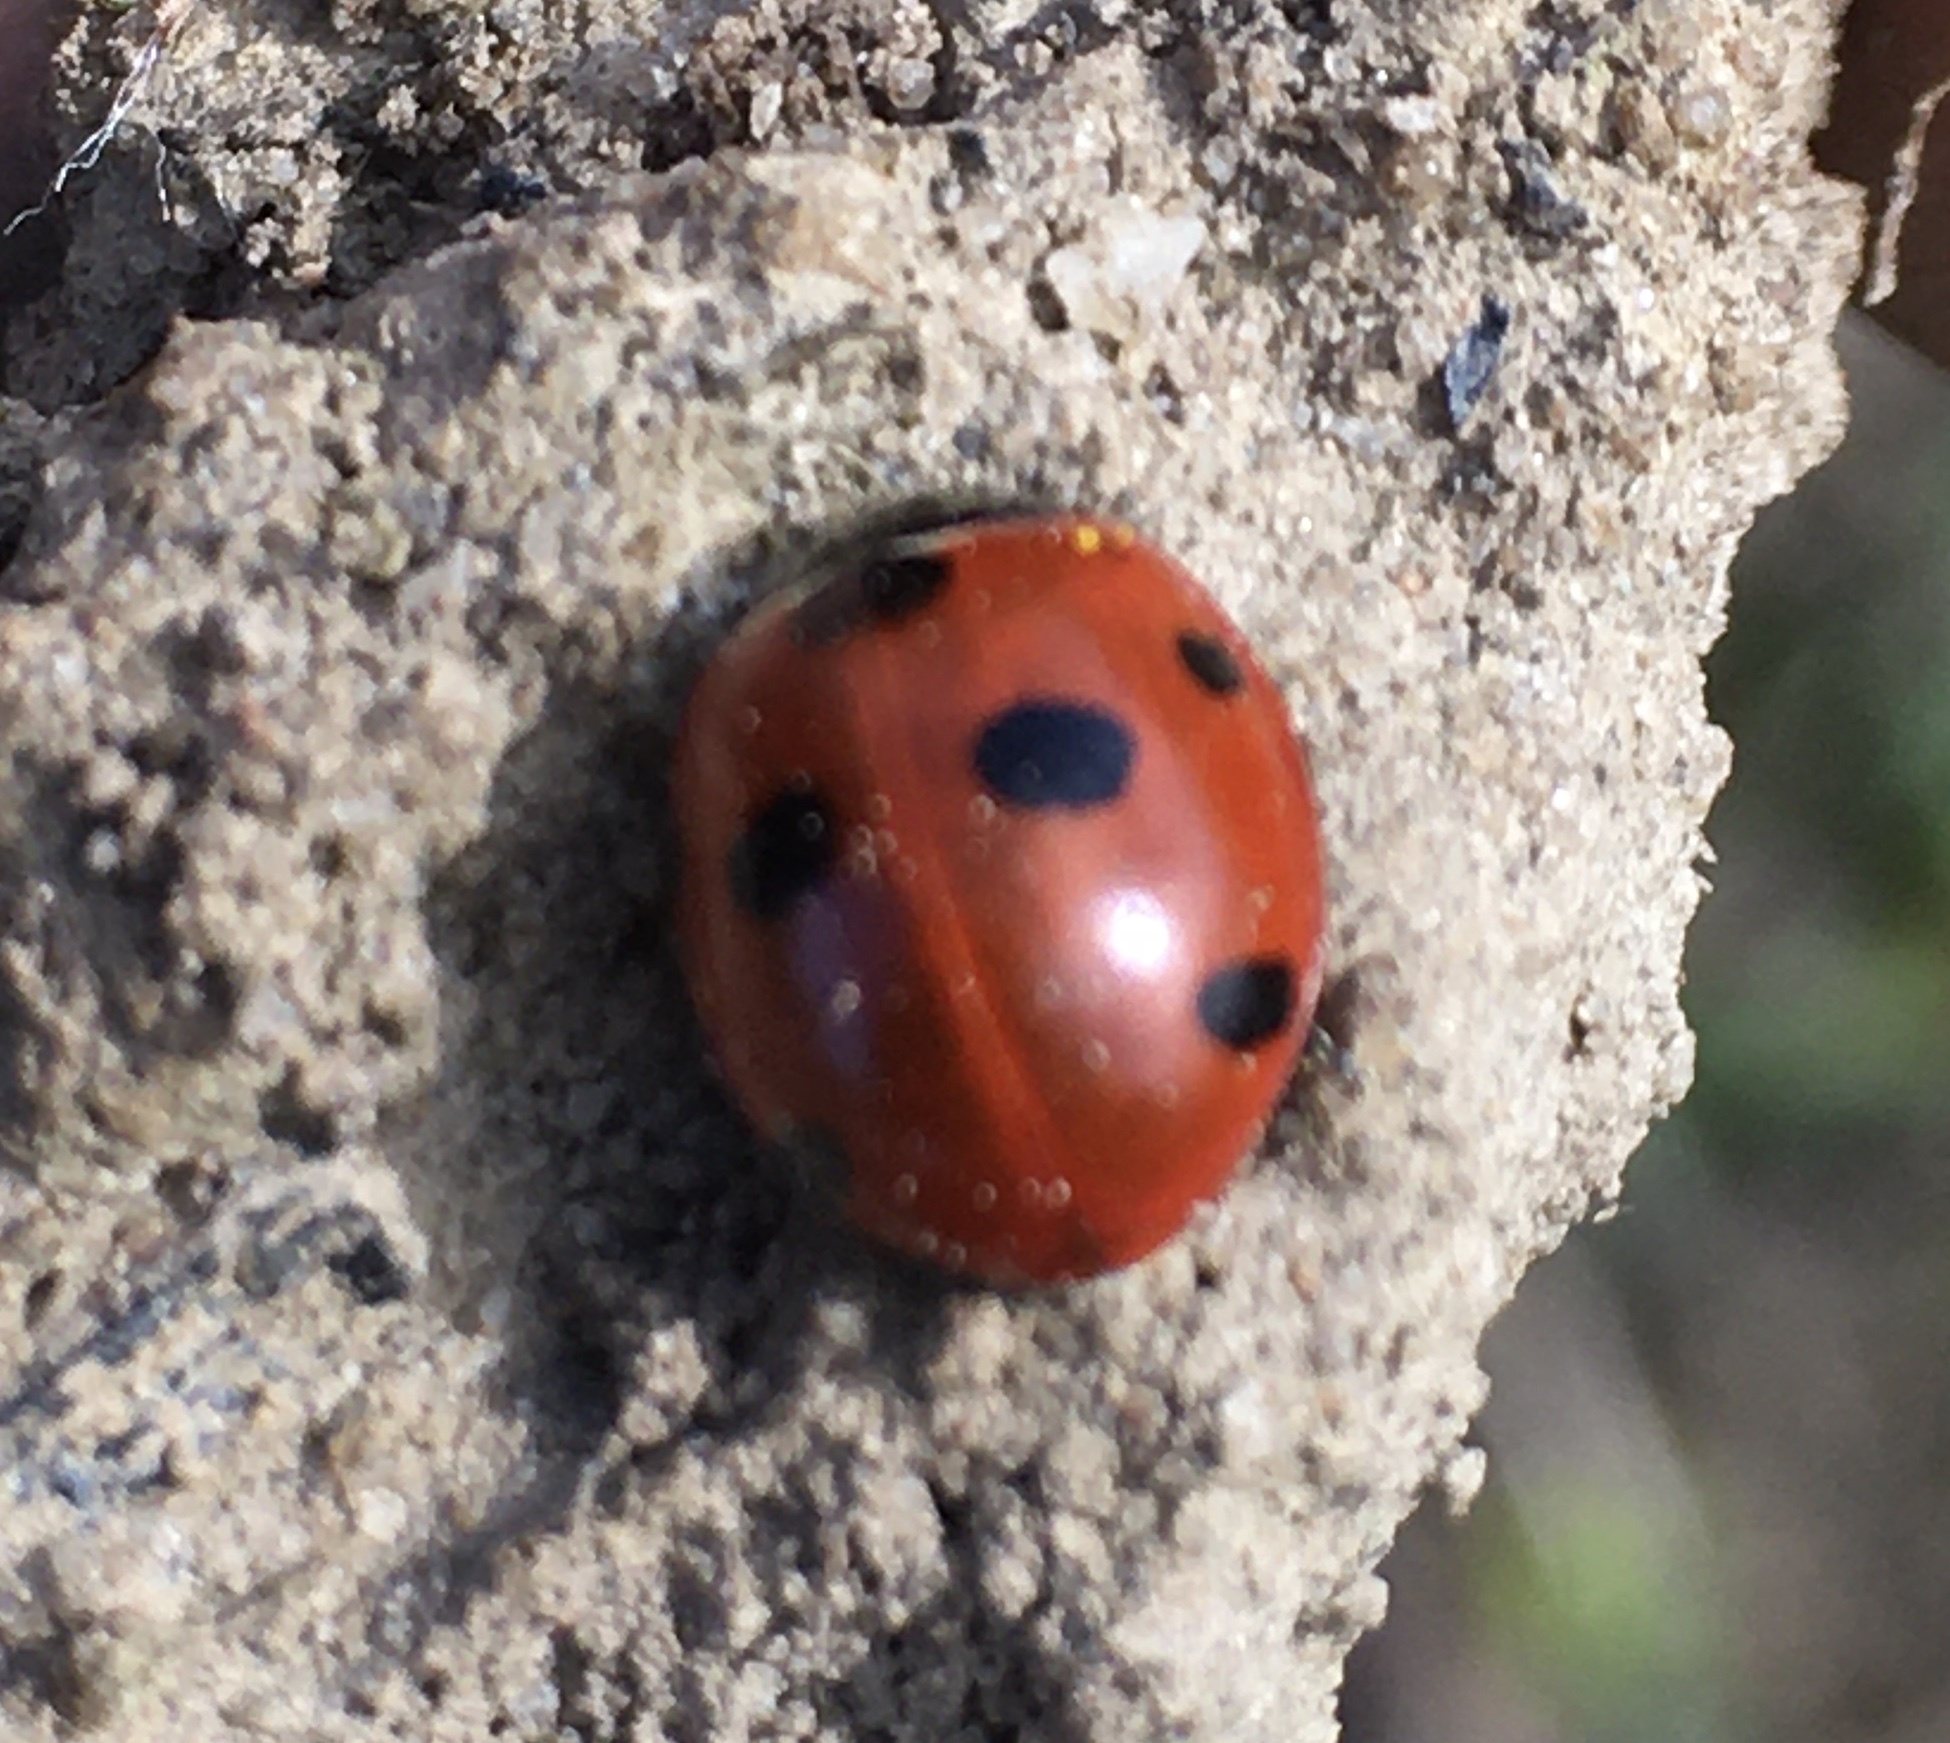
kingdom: Animalia
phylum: Arthropoda
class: Insecta
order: Coleoptera
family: Coccinellidae
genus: Coccinella
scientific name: Coccinella septempunctata
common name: Sevenspotted lady beetle
